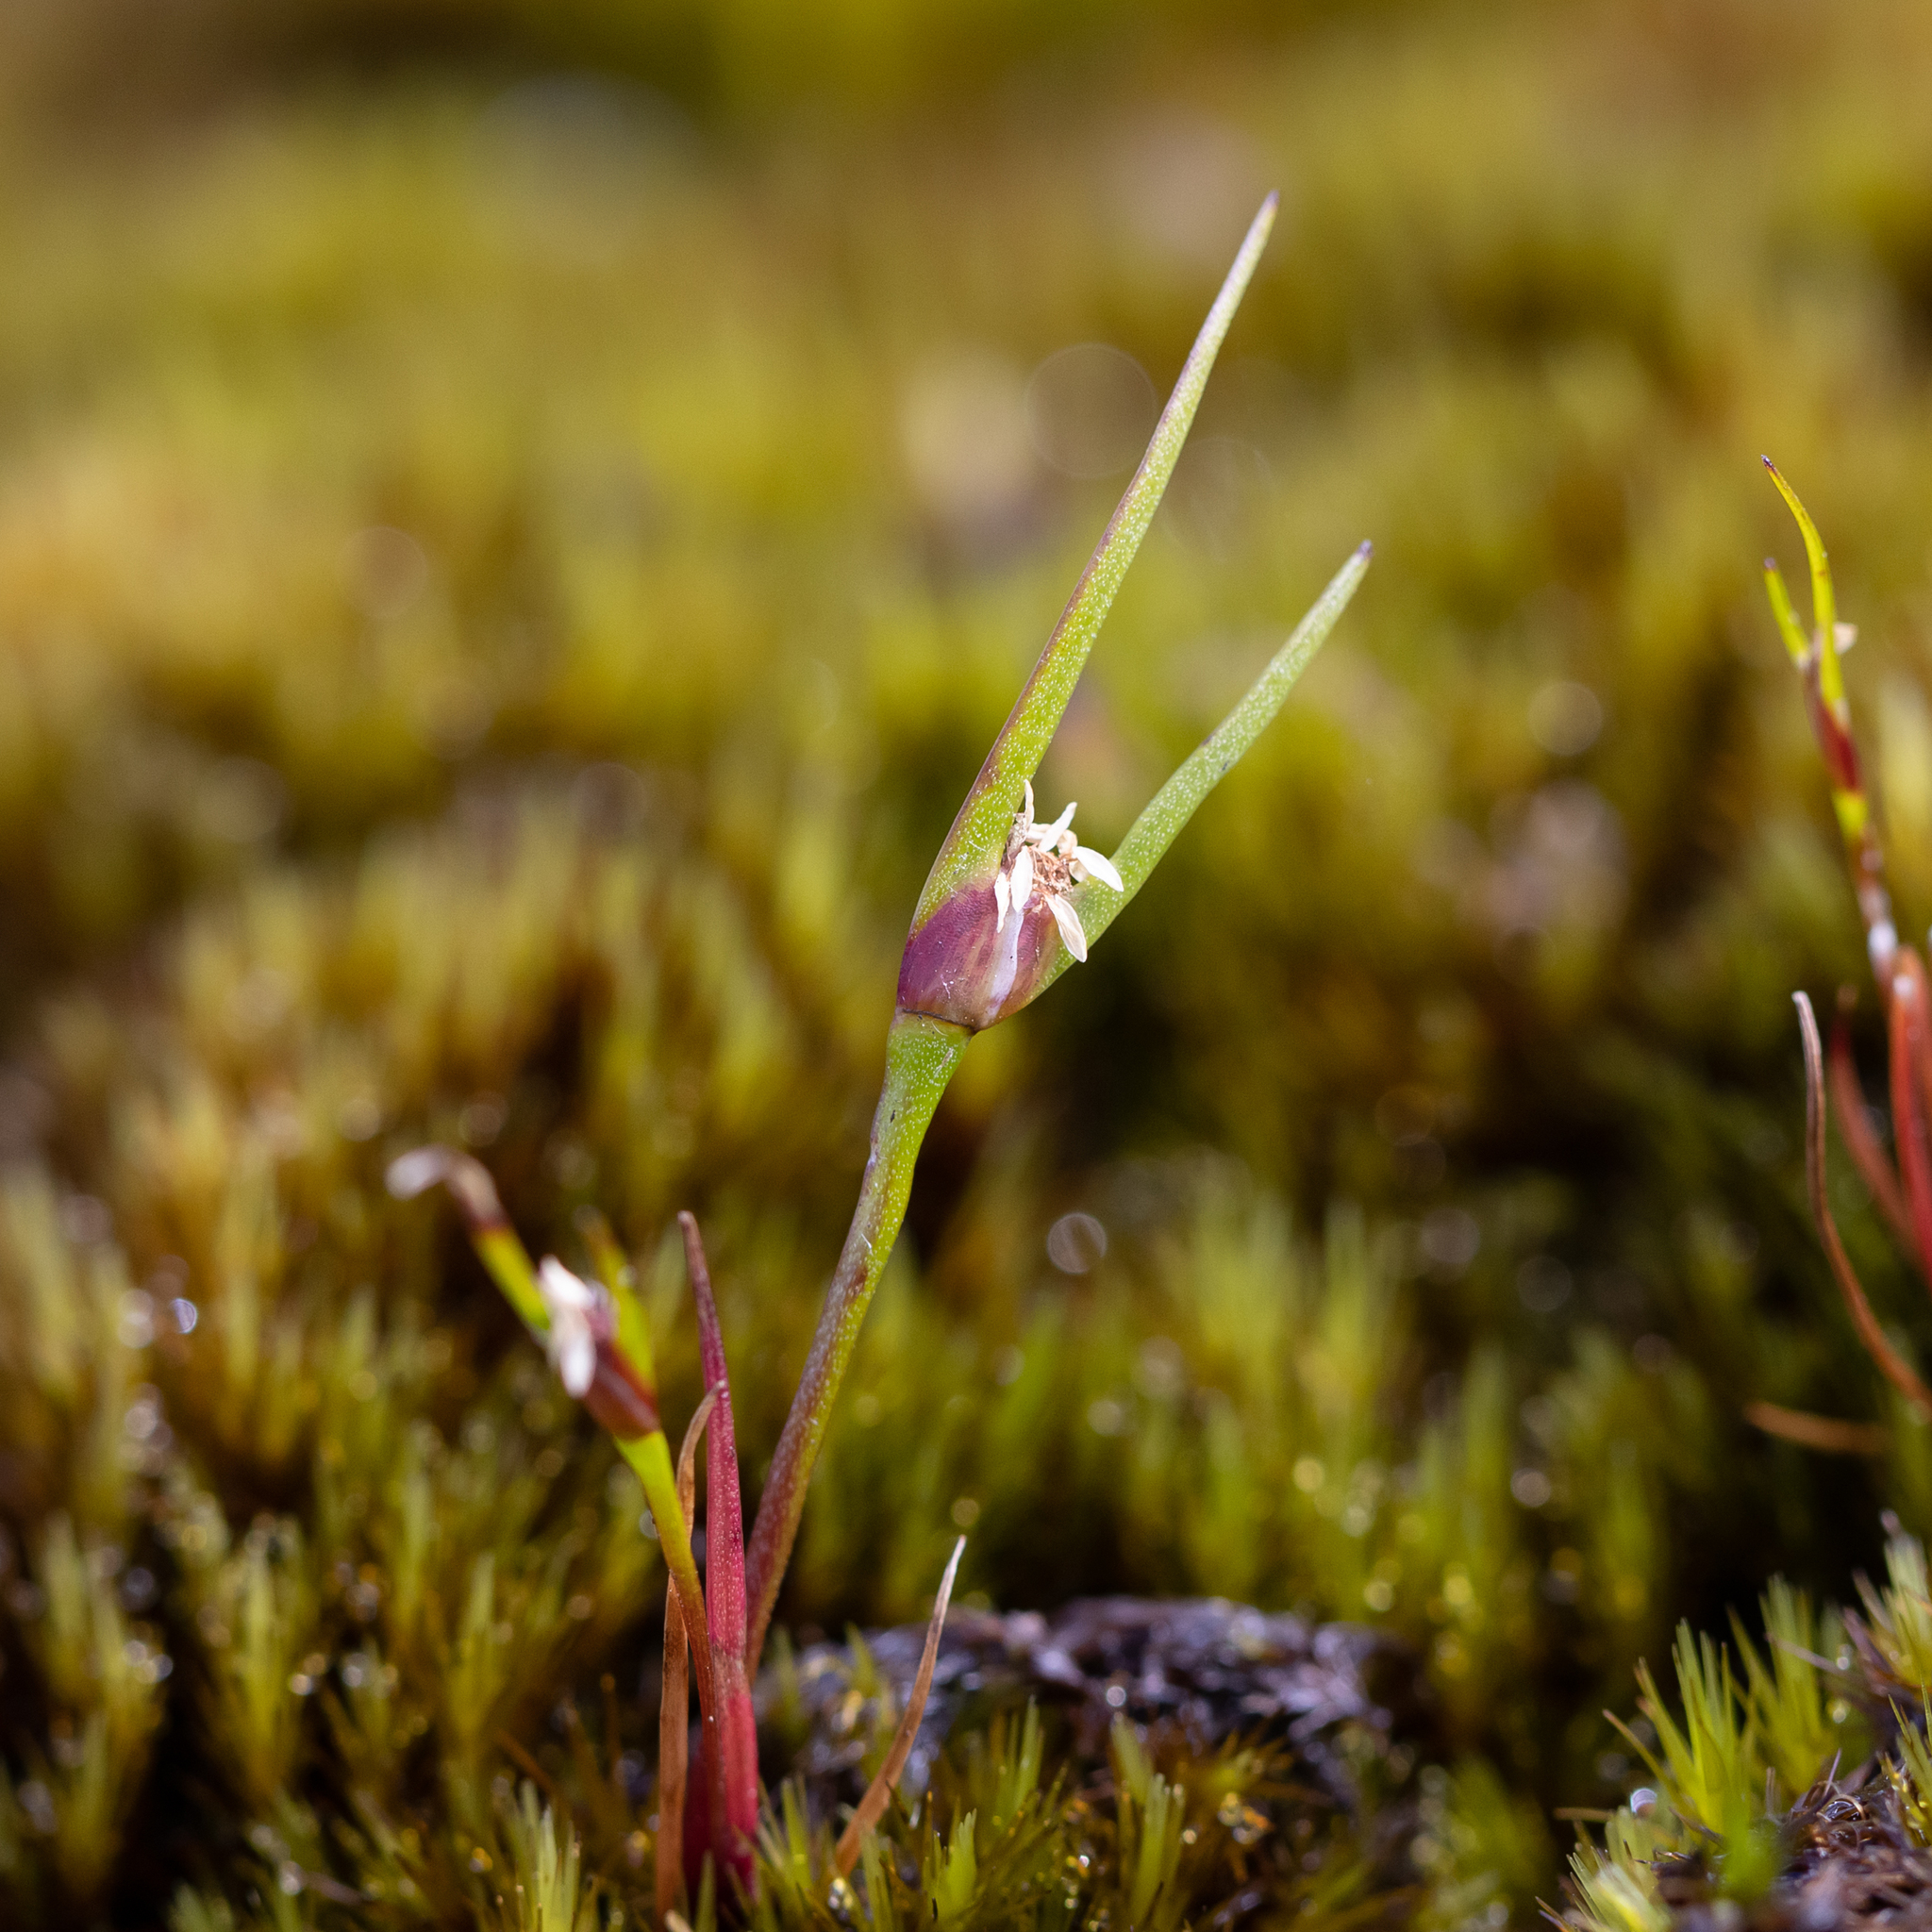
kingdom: Plantae
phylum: Tracheophyta
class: Liliopsida
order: Poales
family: Restionaceae
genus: Centrolepis
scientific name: Centrolepis aristata
